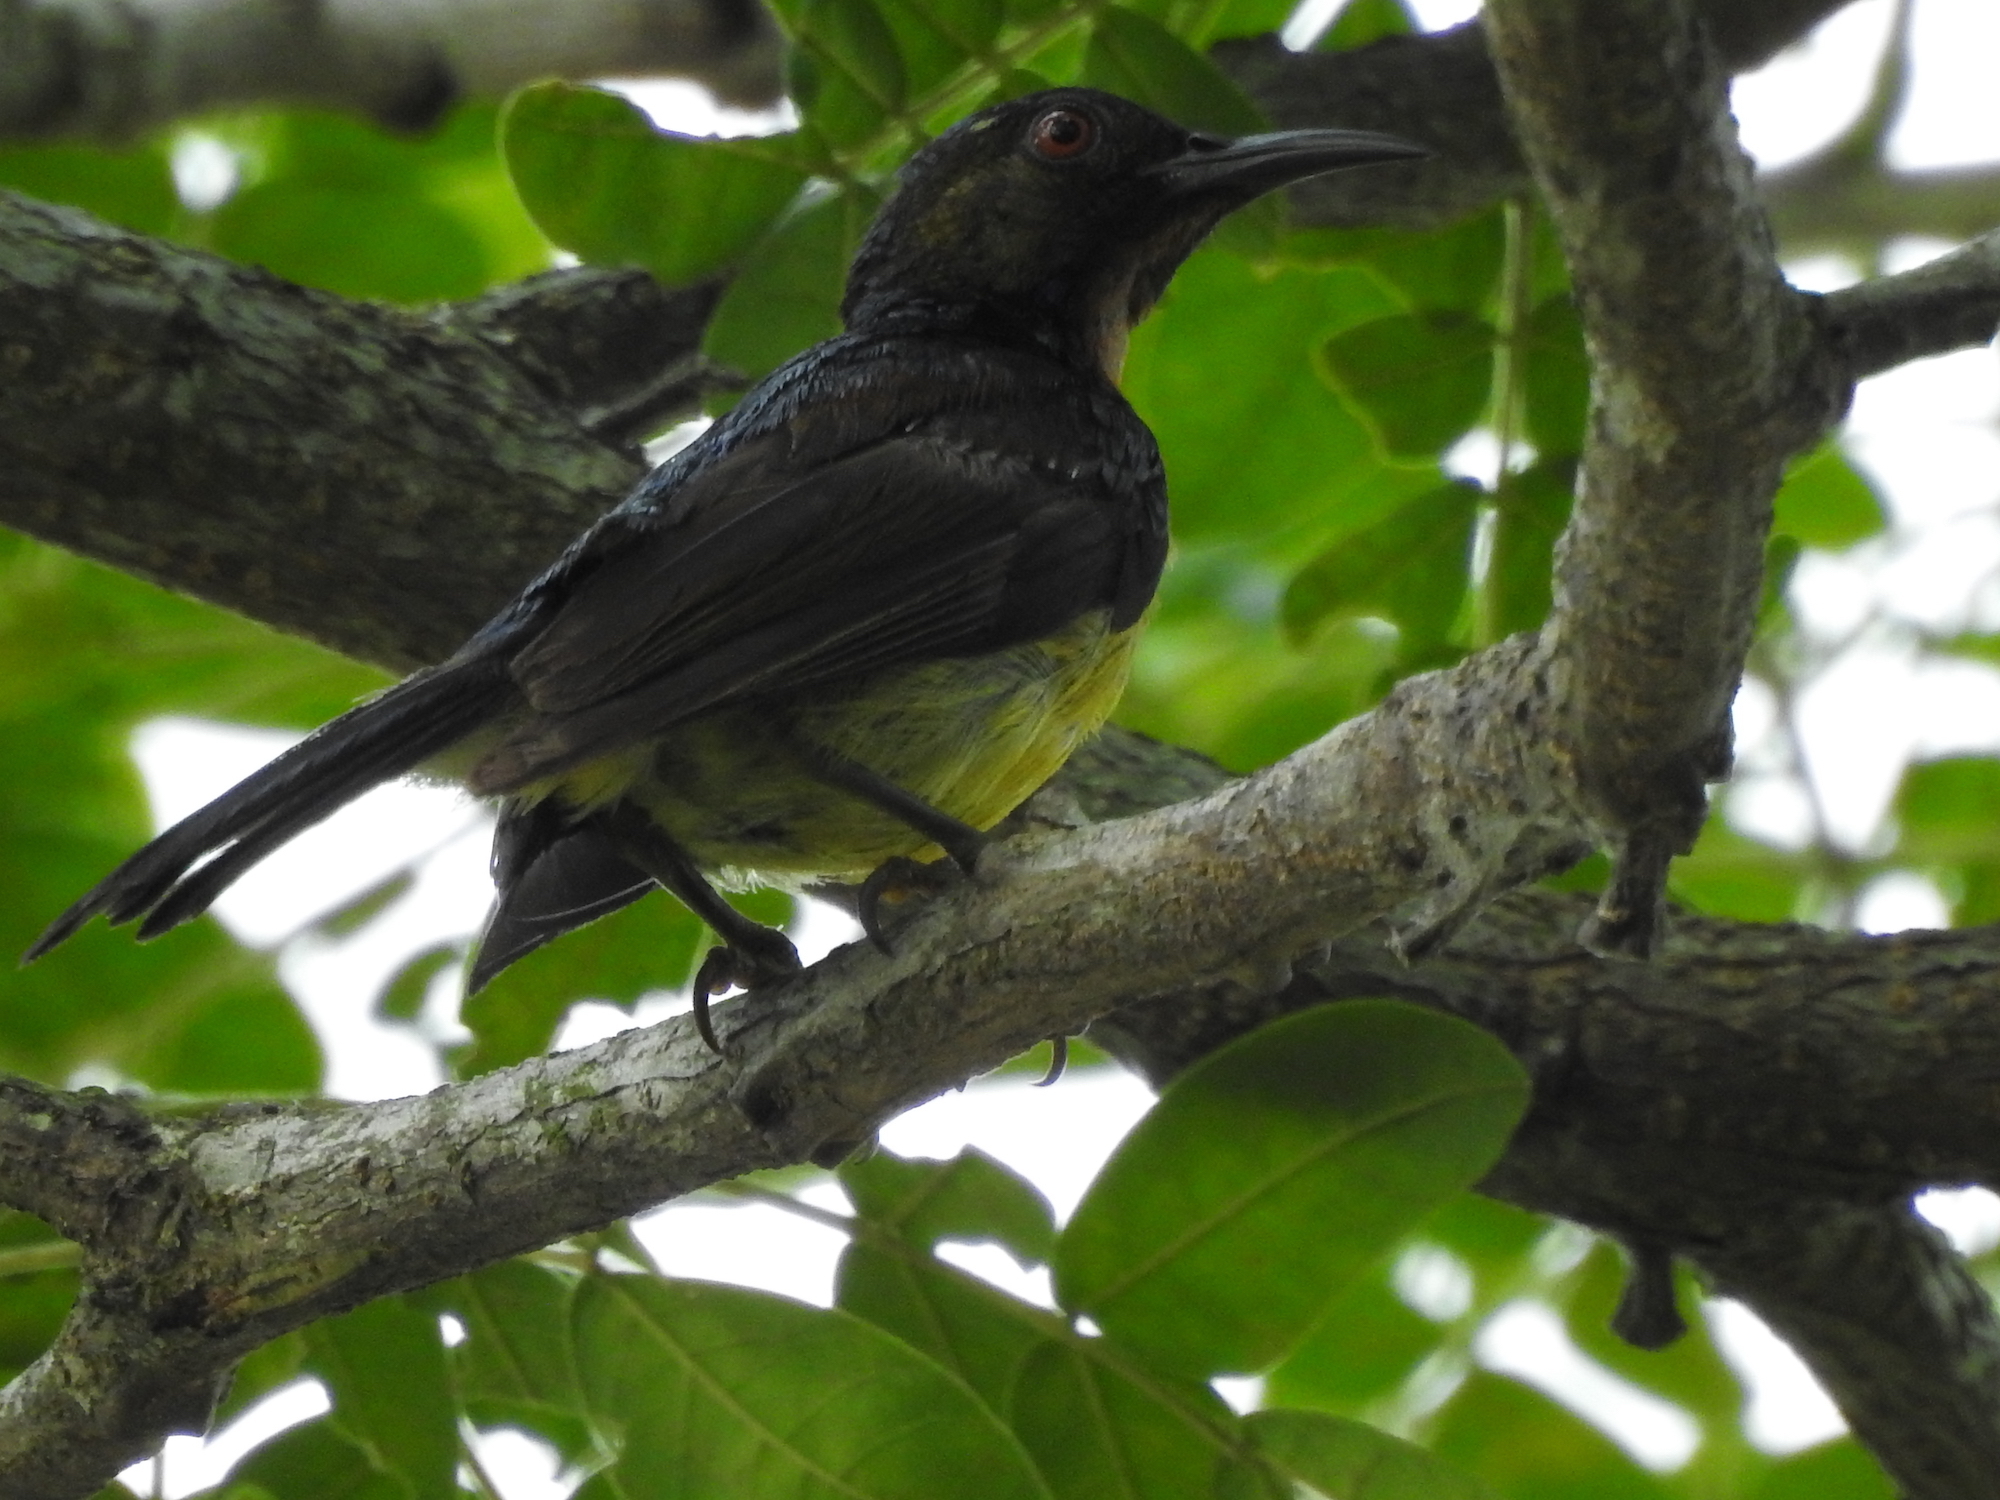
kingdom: Animalia
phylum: Chordata
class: Aves
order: Passeriformes
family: Nectariniidae
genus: Anthreptes
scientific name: Anthreptes malacensis
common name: Brown-throated sunbird
